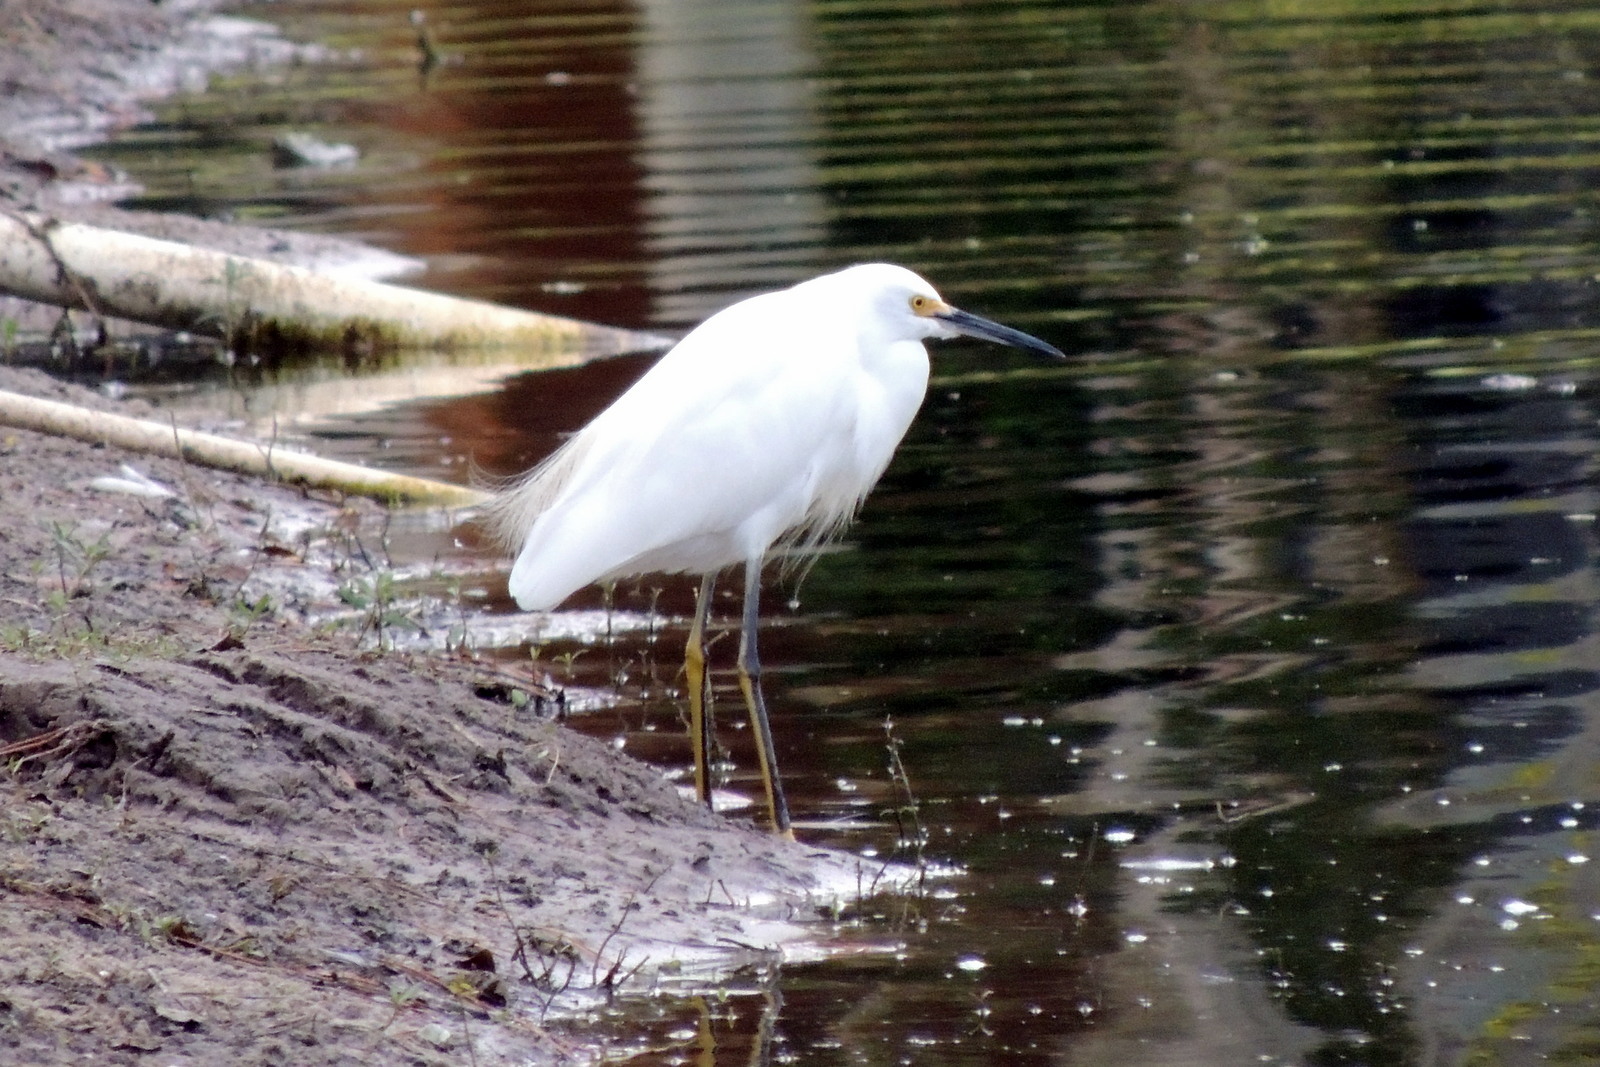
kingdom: Animalia
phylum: Chordata
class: Aves
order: Pelecaniformes
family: Ardeidae
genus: Egretta
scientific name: Egretta thula
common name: Snowy egret
